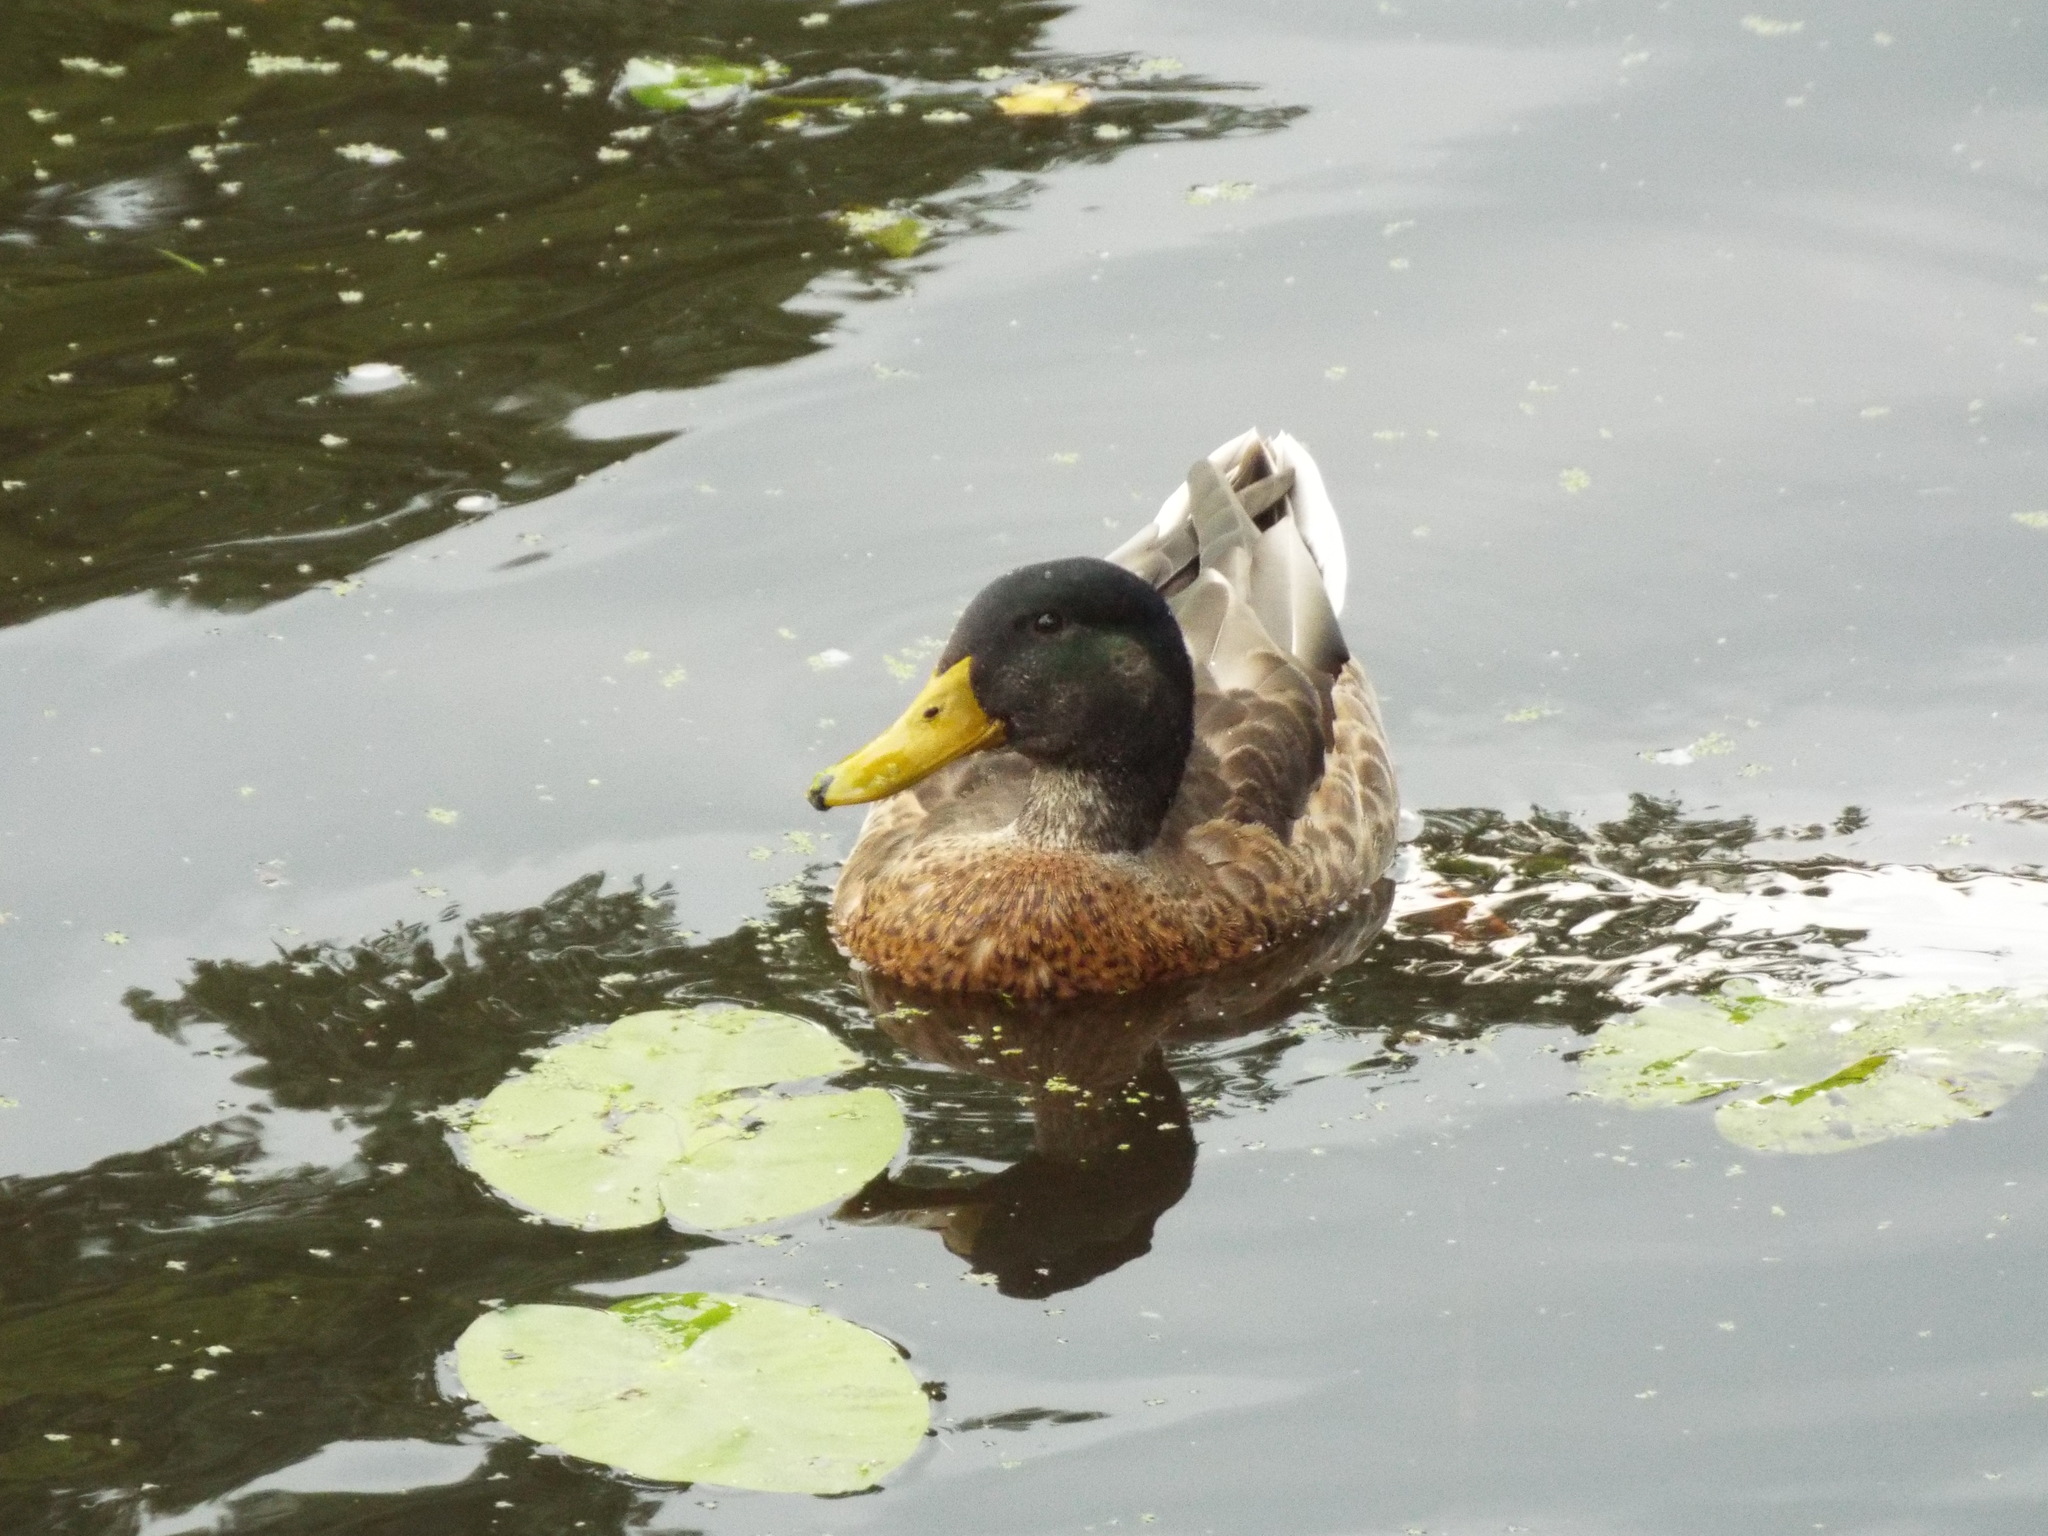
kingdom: Animalia
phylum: Chordata
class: Aves
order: Anseriformes
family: Anatidae
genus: Anas
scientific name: Anas platyrhynchos
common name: Mallard
